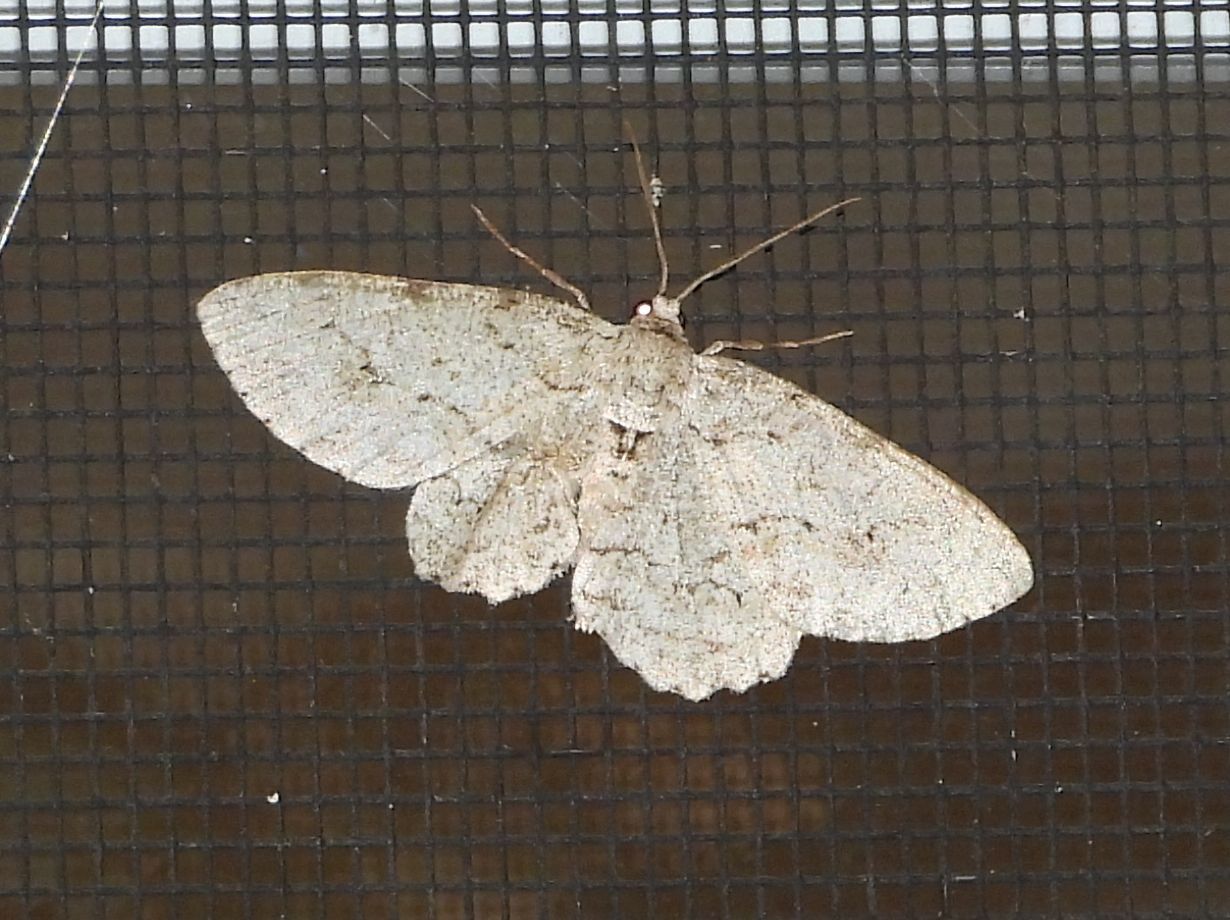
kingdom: Animalia
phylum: Arthropoda
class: Insecta
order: Lepidoptera
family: Geometridae
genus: Ectropis
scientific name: Ectropis crepuscularia
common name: Engrailed
